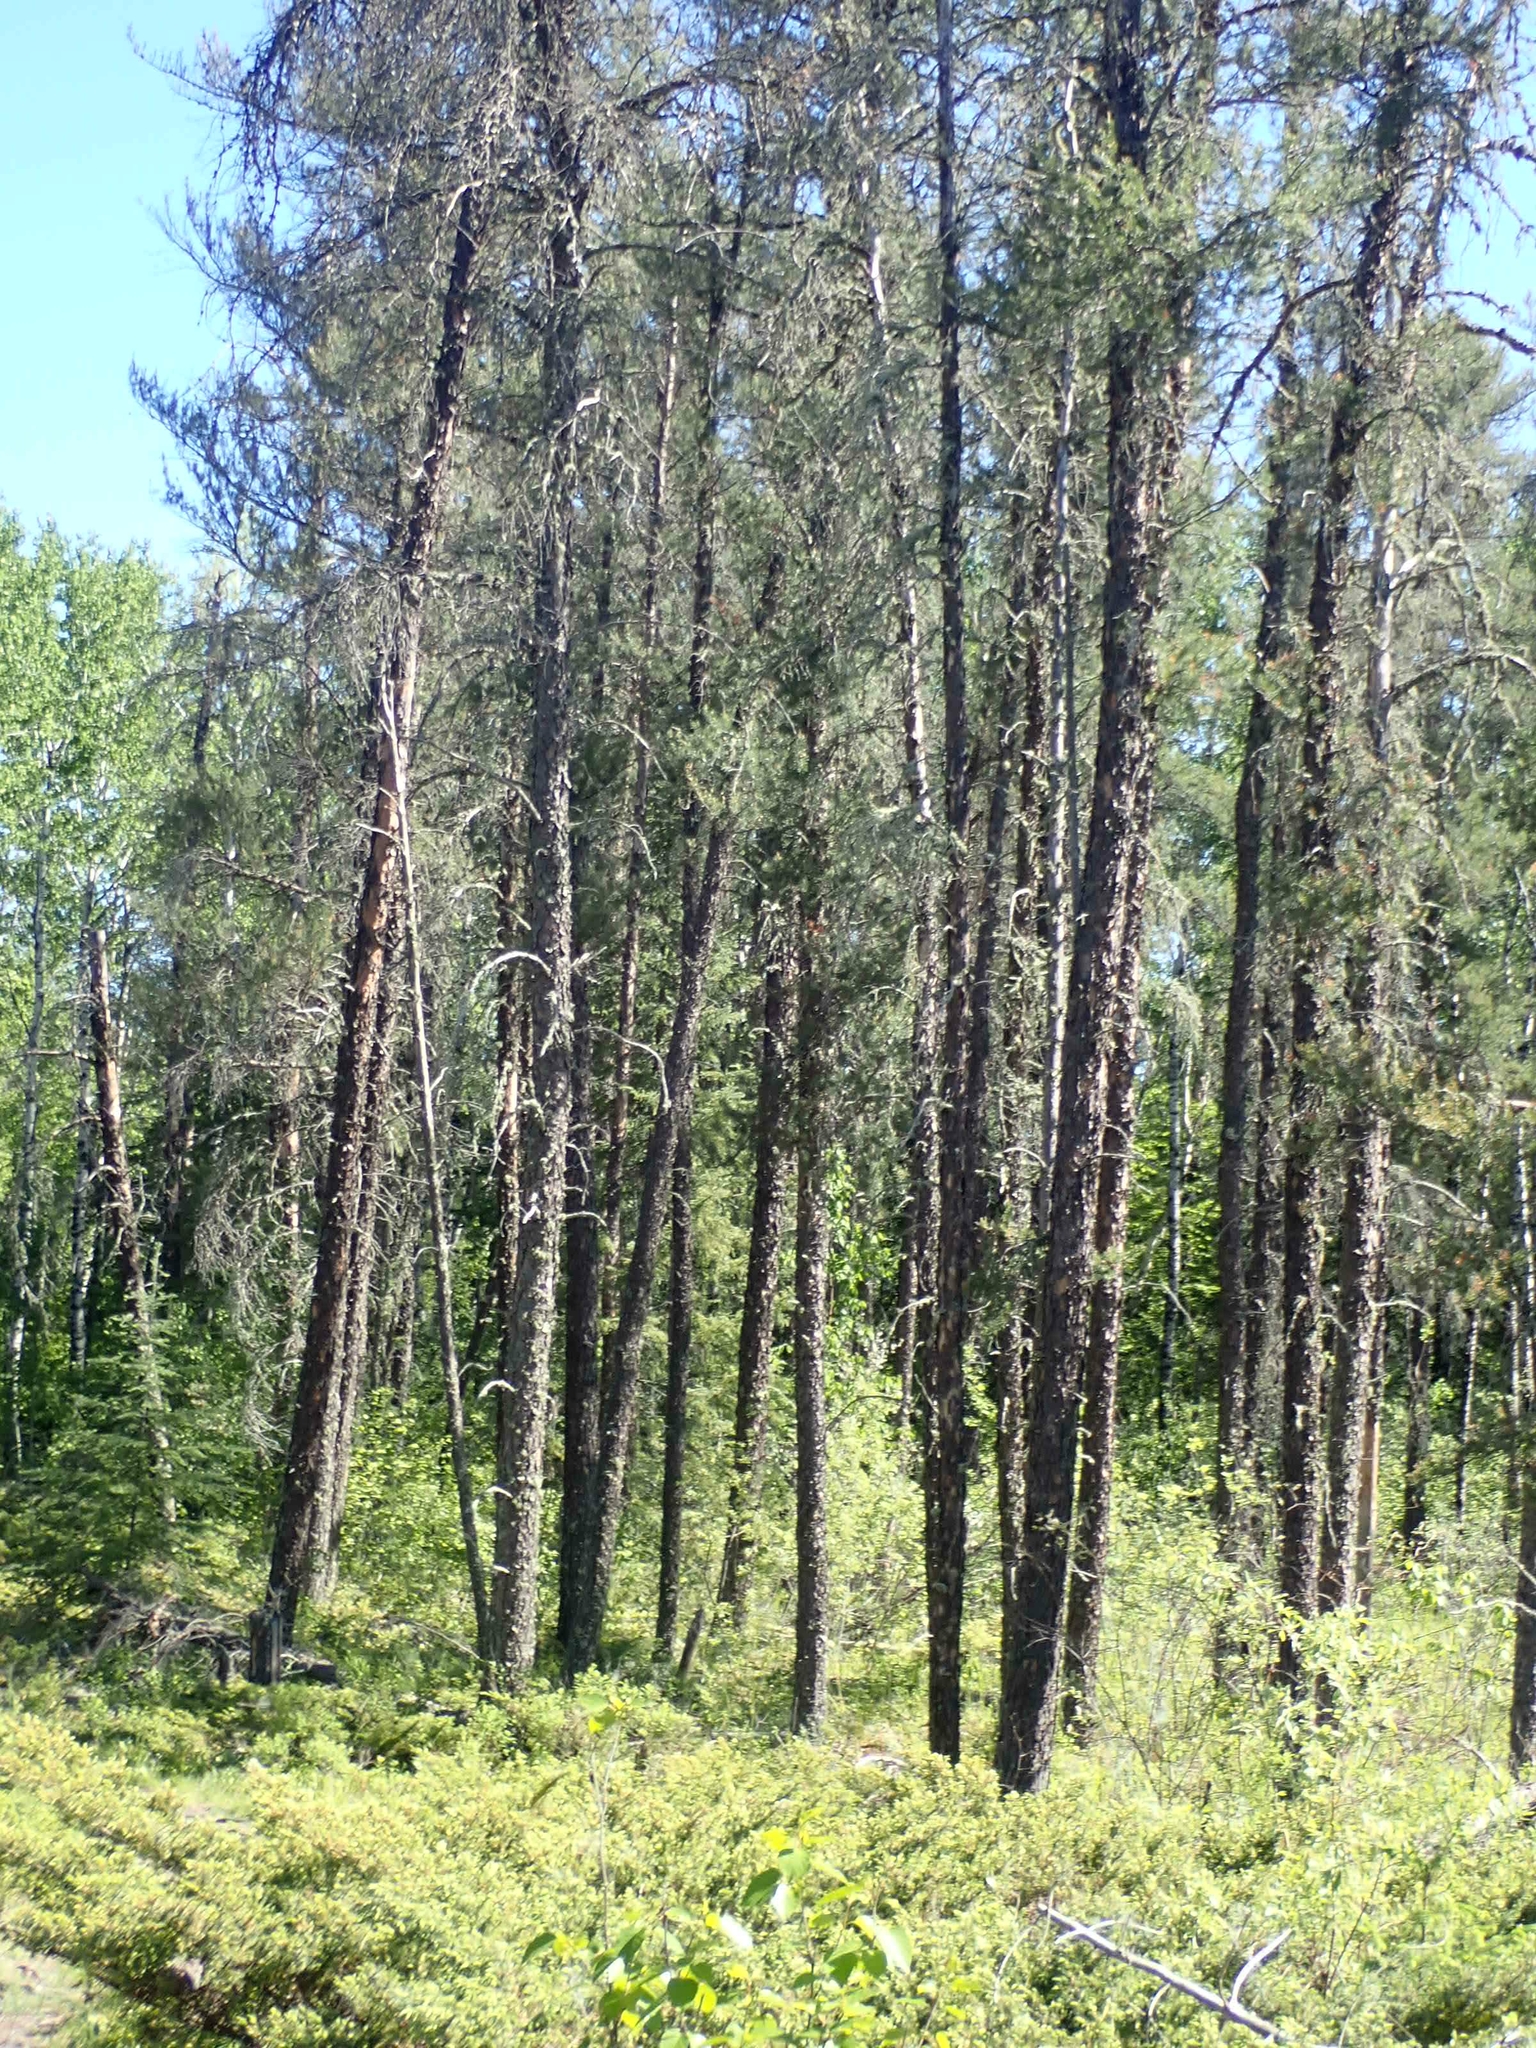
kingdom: Plantae
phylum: Tracheophyta
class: Pinopsida
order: Pinales
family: Pinaceae
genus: Pinus
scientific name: Pinus banksiana
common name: Jack pine
